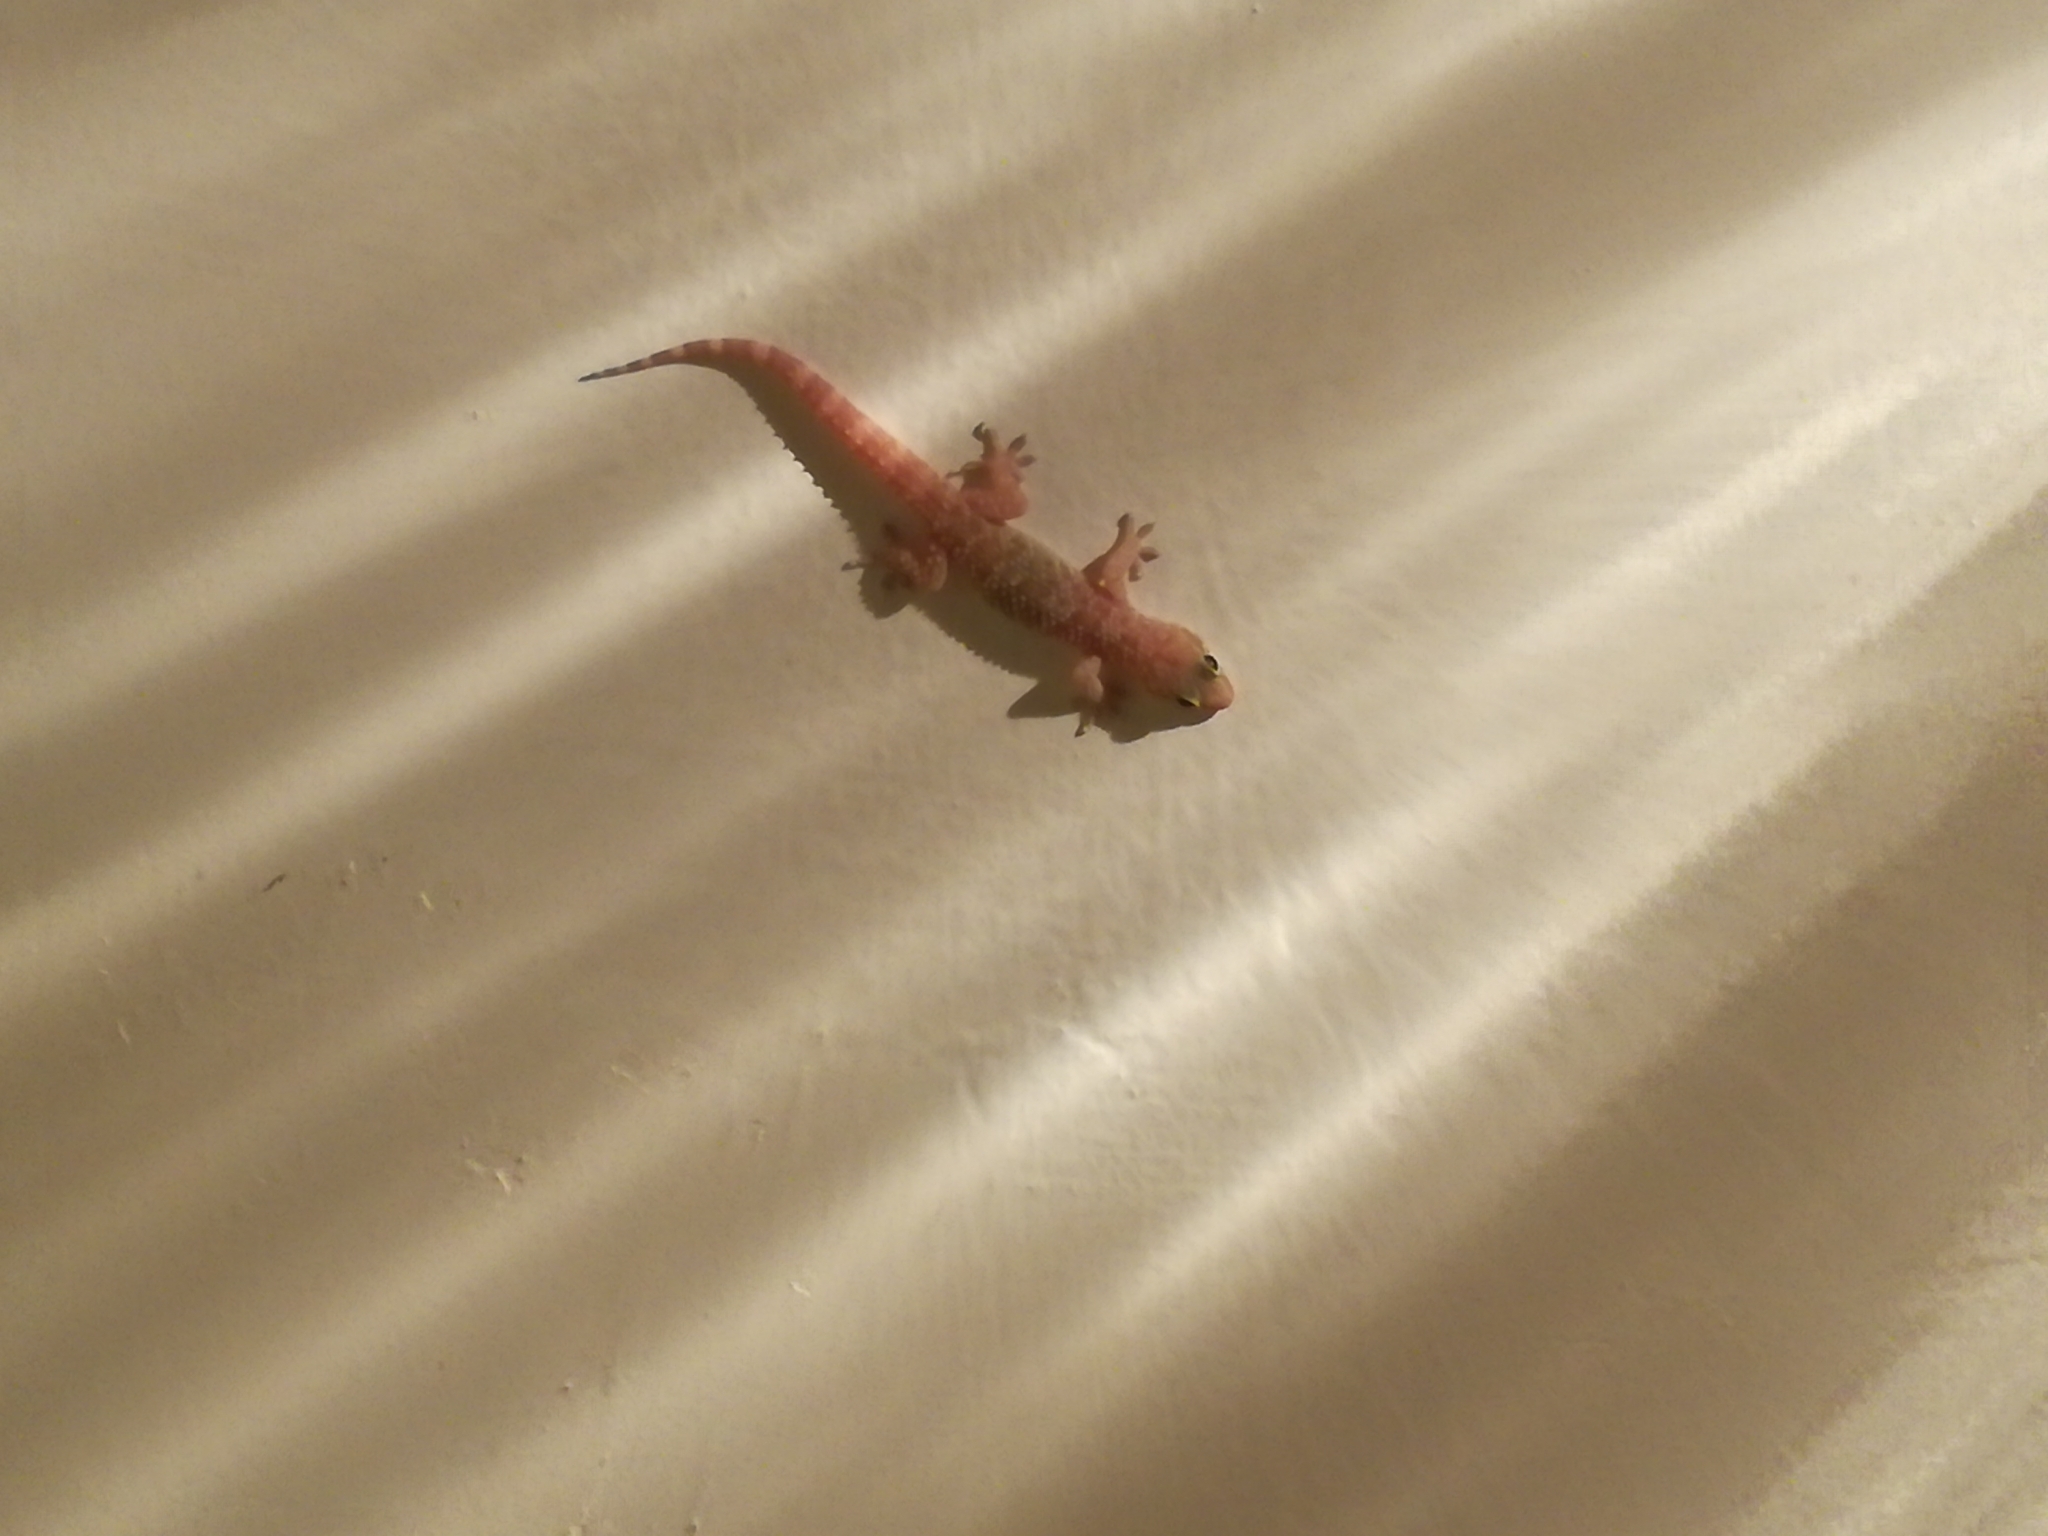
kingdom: Animalia
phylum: Chordata
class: Squamata
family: Gekkonidae
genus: Hemidactylus
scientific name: Hemidactylus turcicus
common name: Turkish gecko
